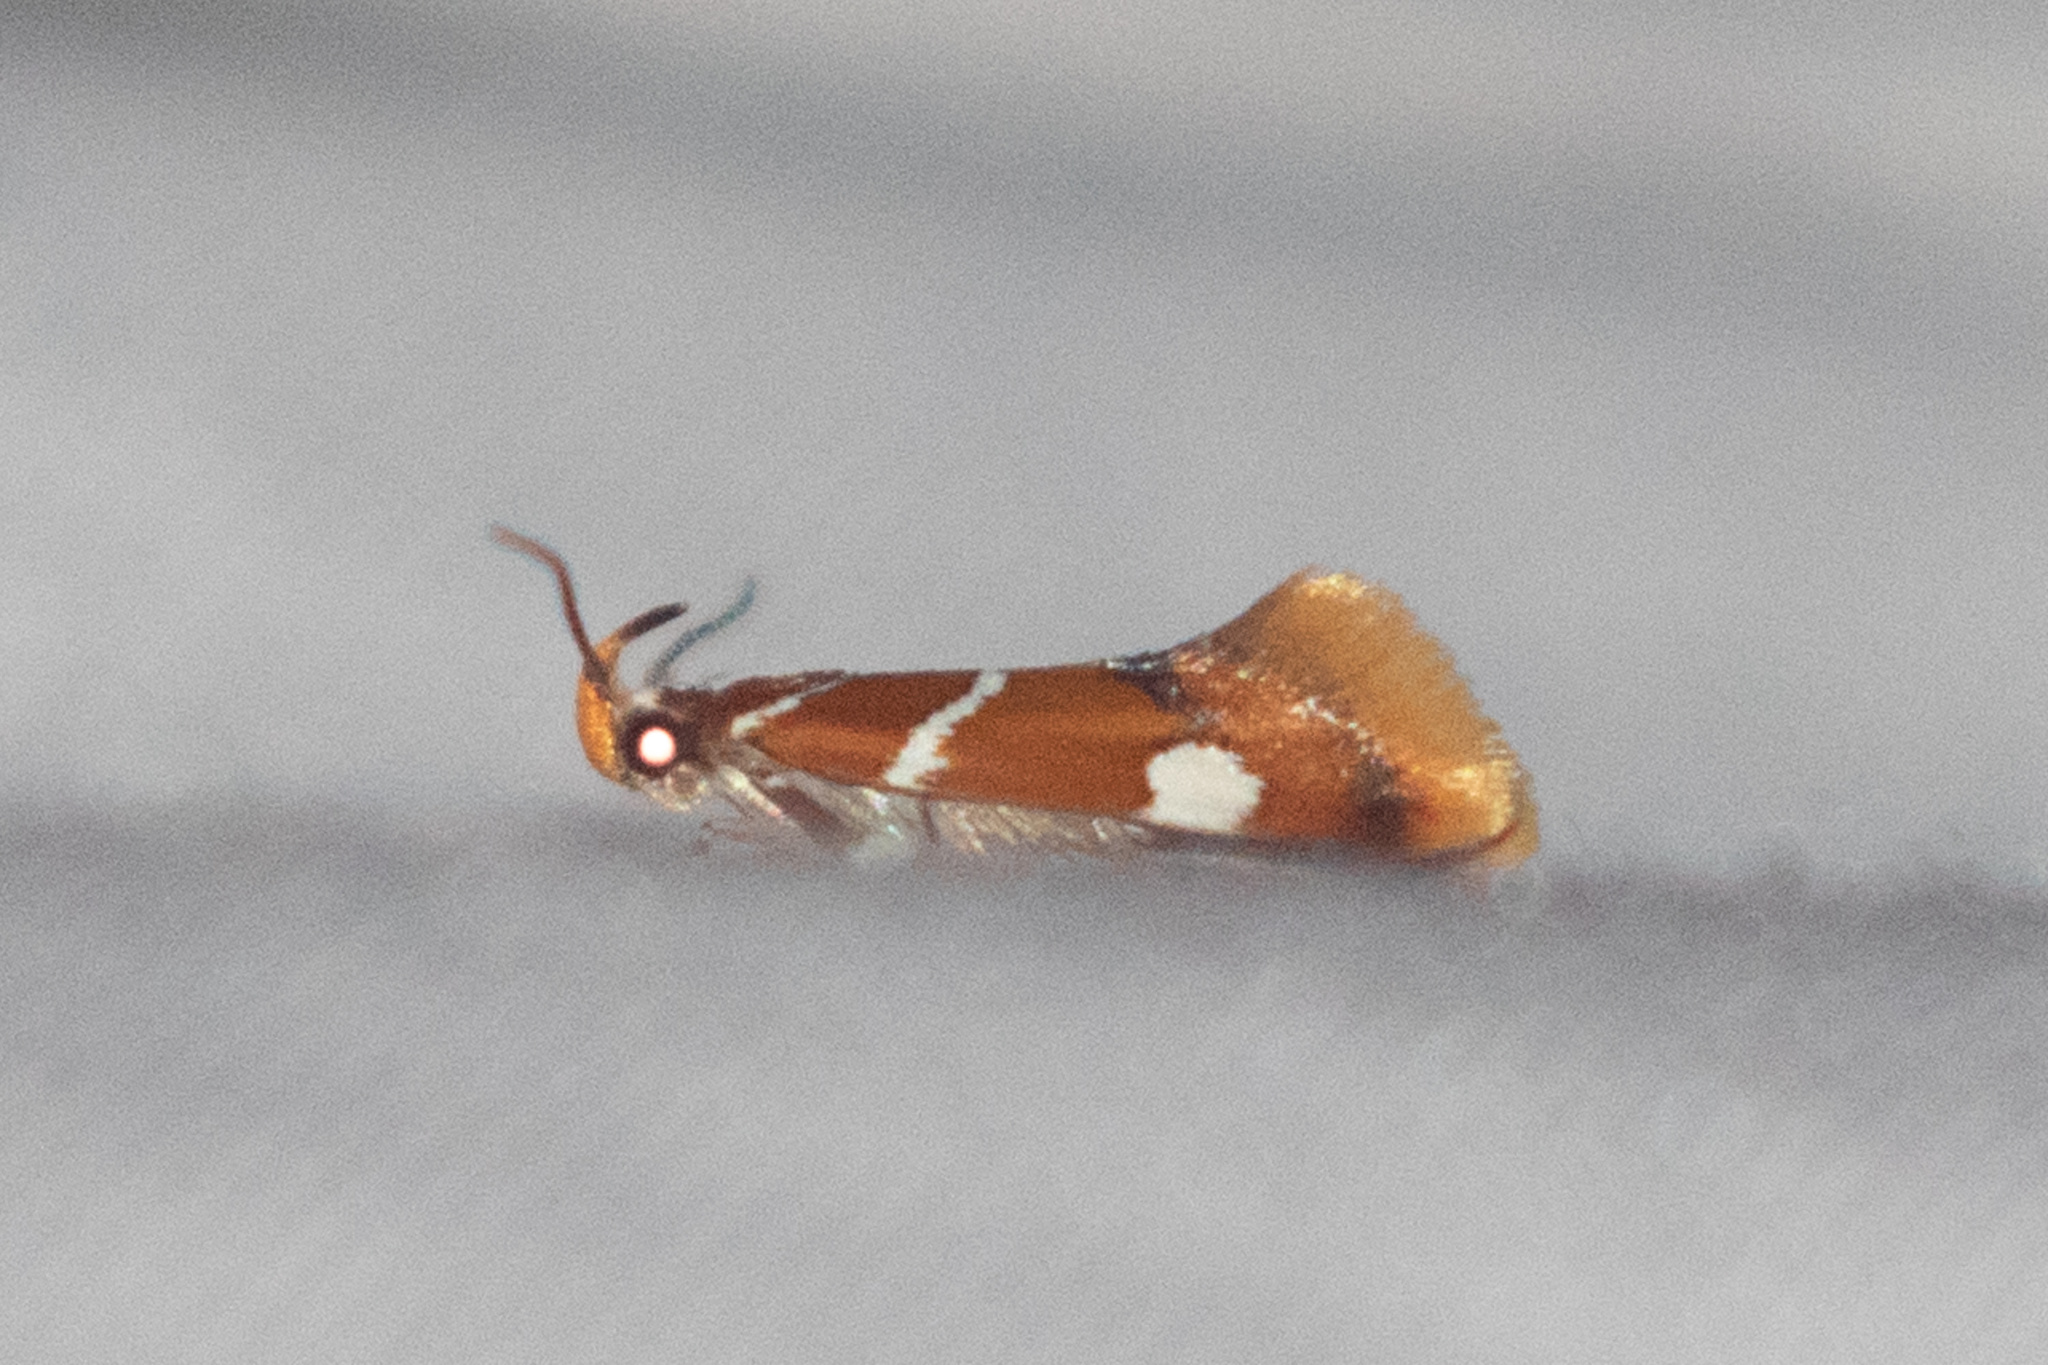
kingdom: Animalia
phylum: Arthropoda
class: Insecta
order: Lepidoptera
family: Oecophoridae
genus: Promalactis
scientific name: Promalactis suzukiella
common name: Moth
